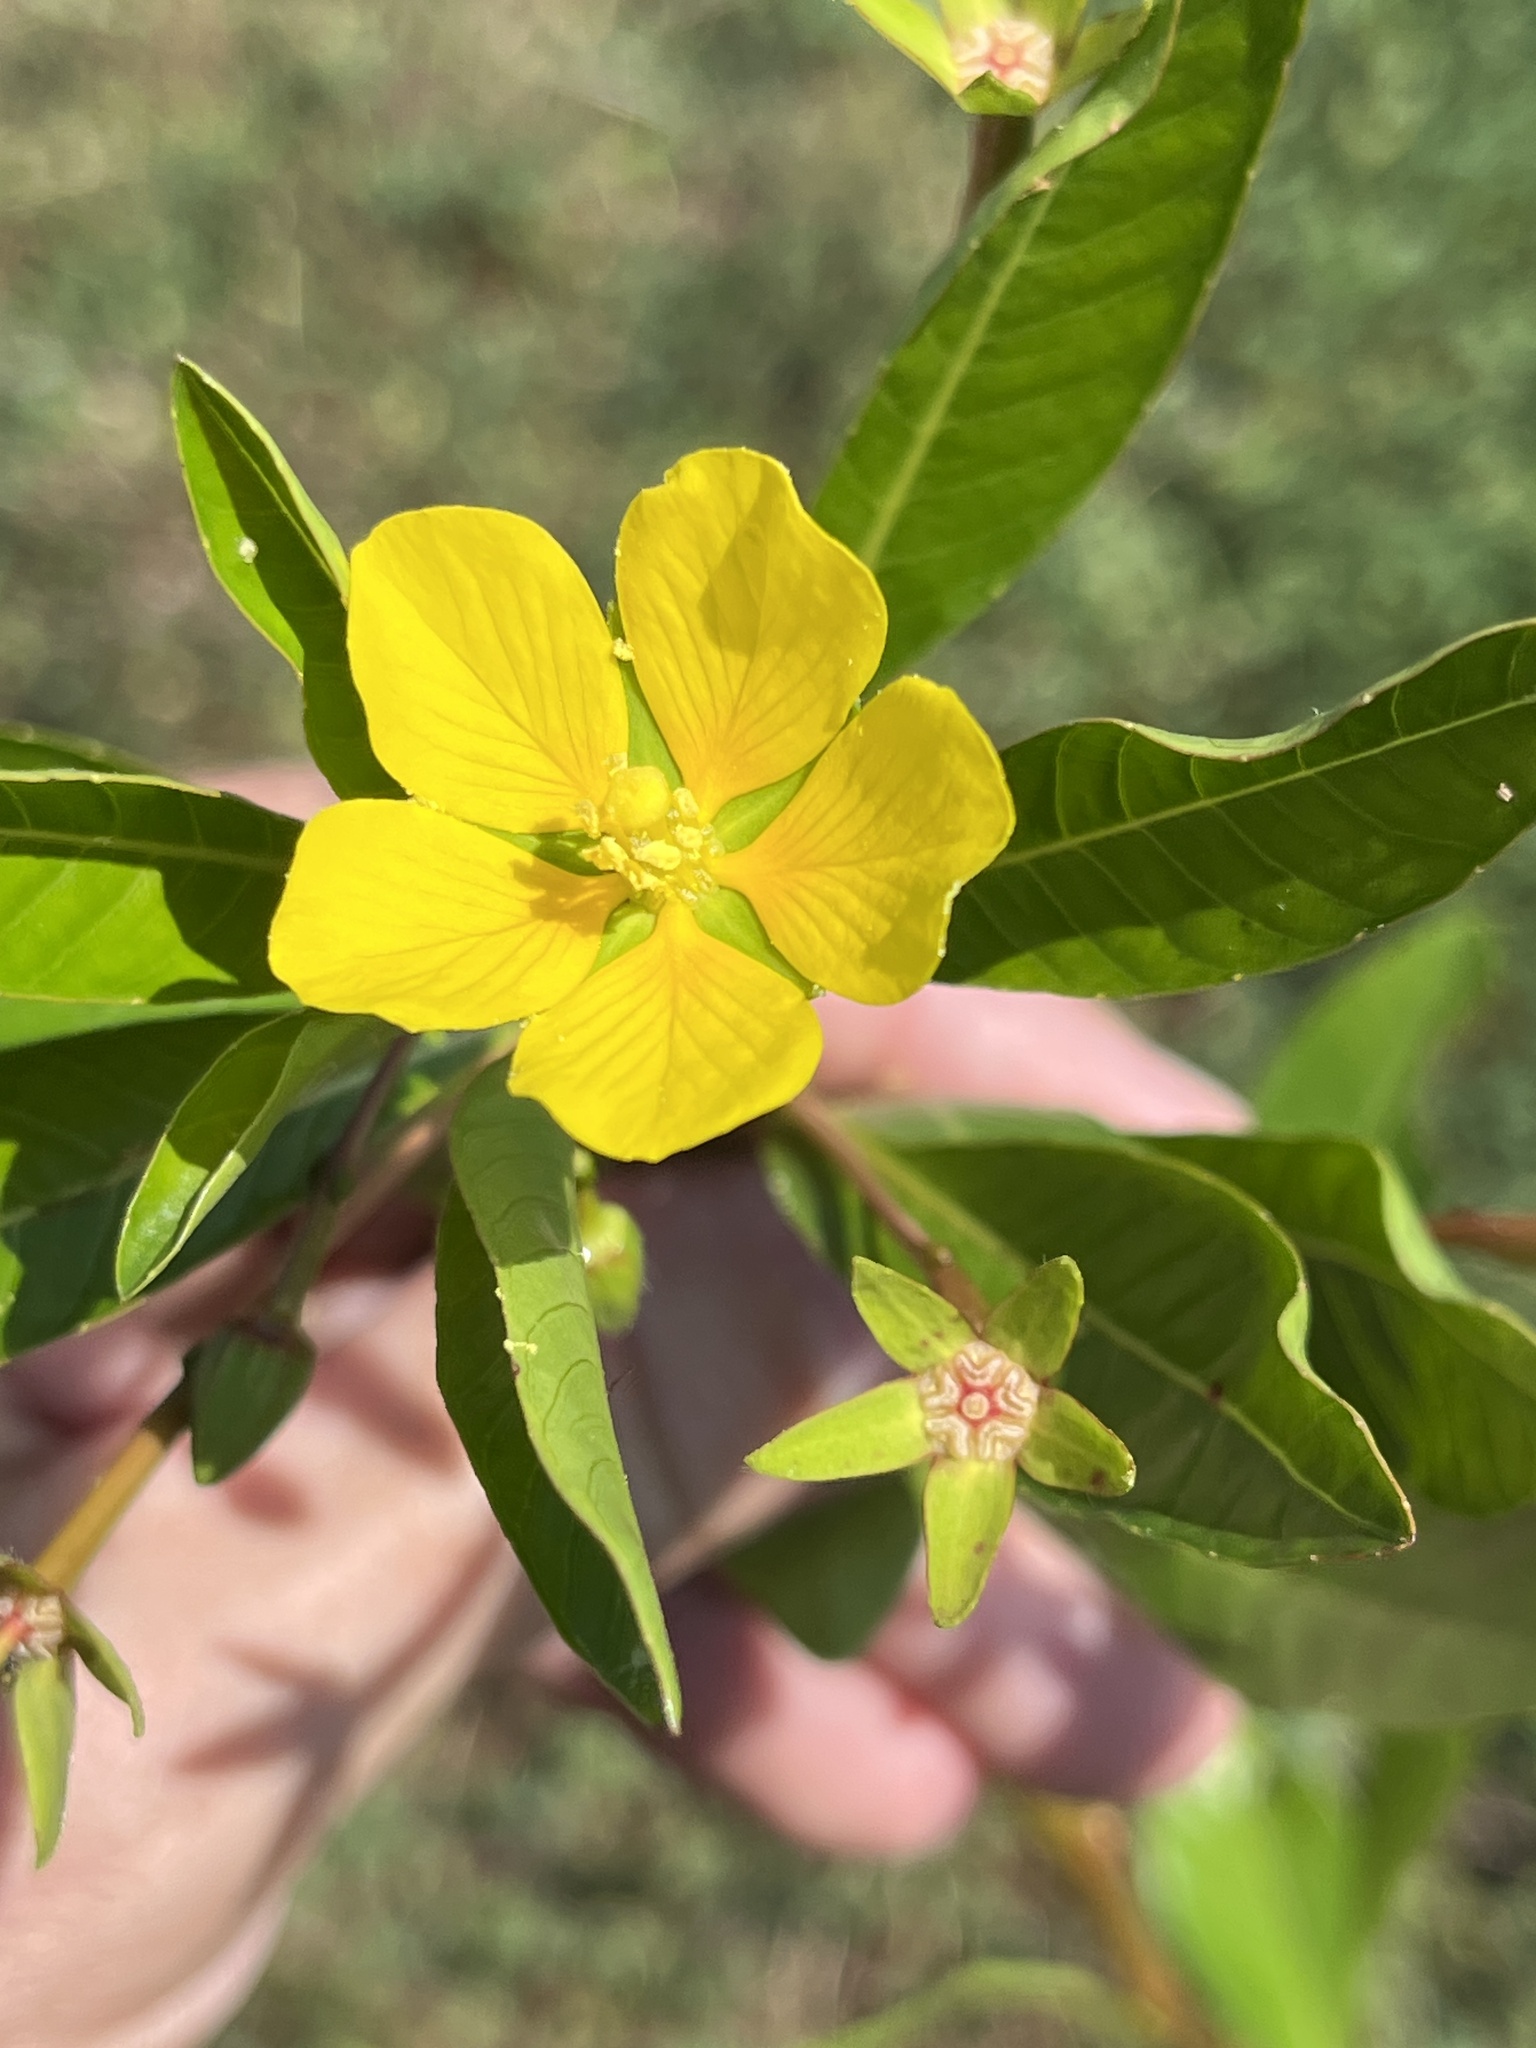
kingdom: Plantae
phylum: Tracheophyta
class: Magnoliopsida
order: Myrtales
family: Onagraceae
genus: Ludwigia
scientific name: Ludwigia peploides
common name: Floating primrose-willow
